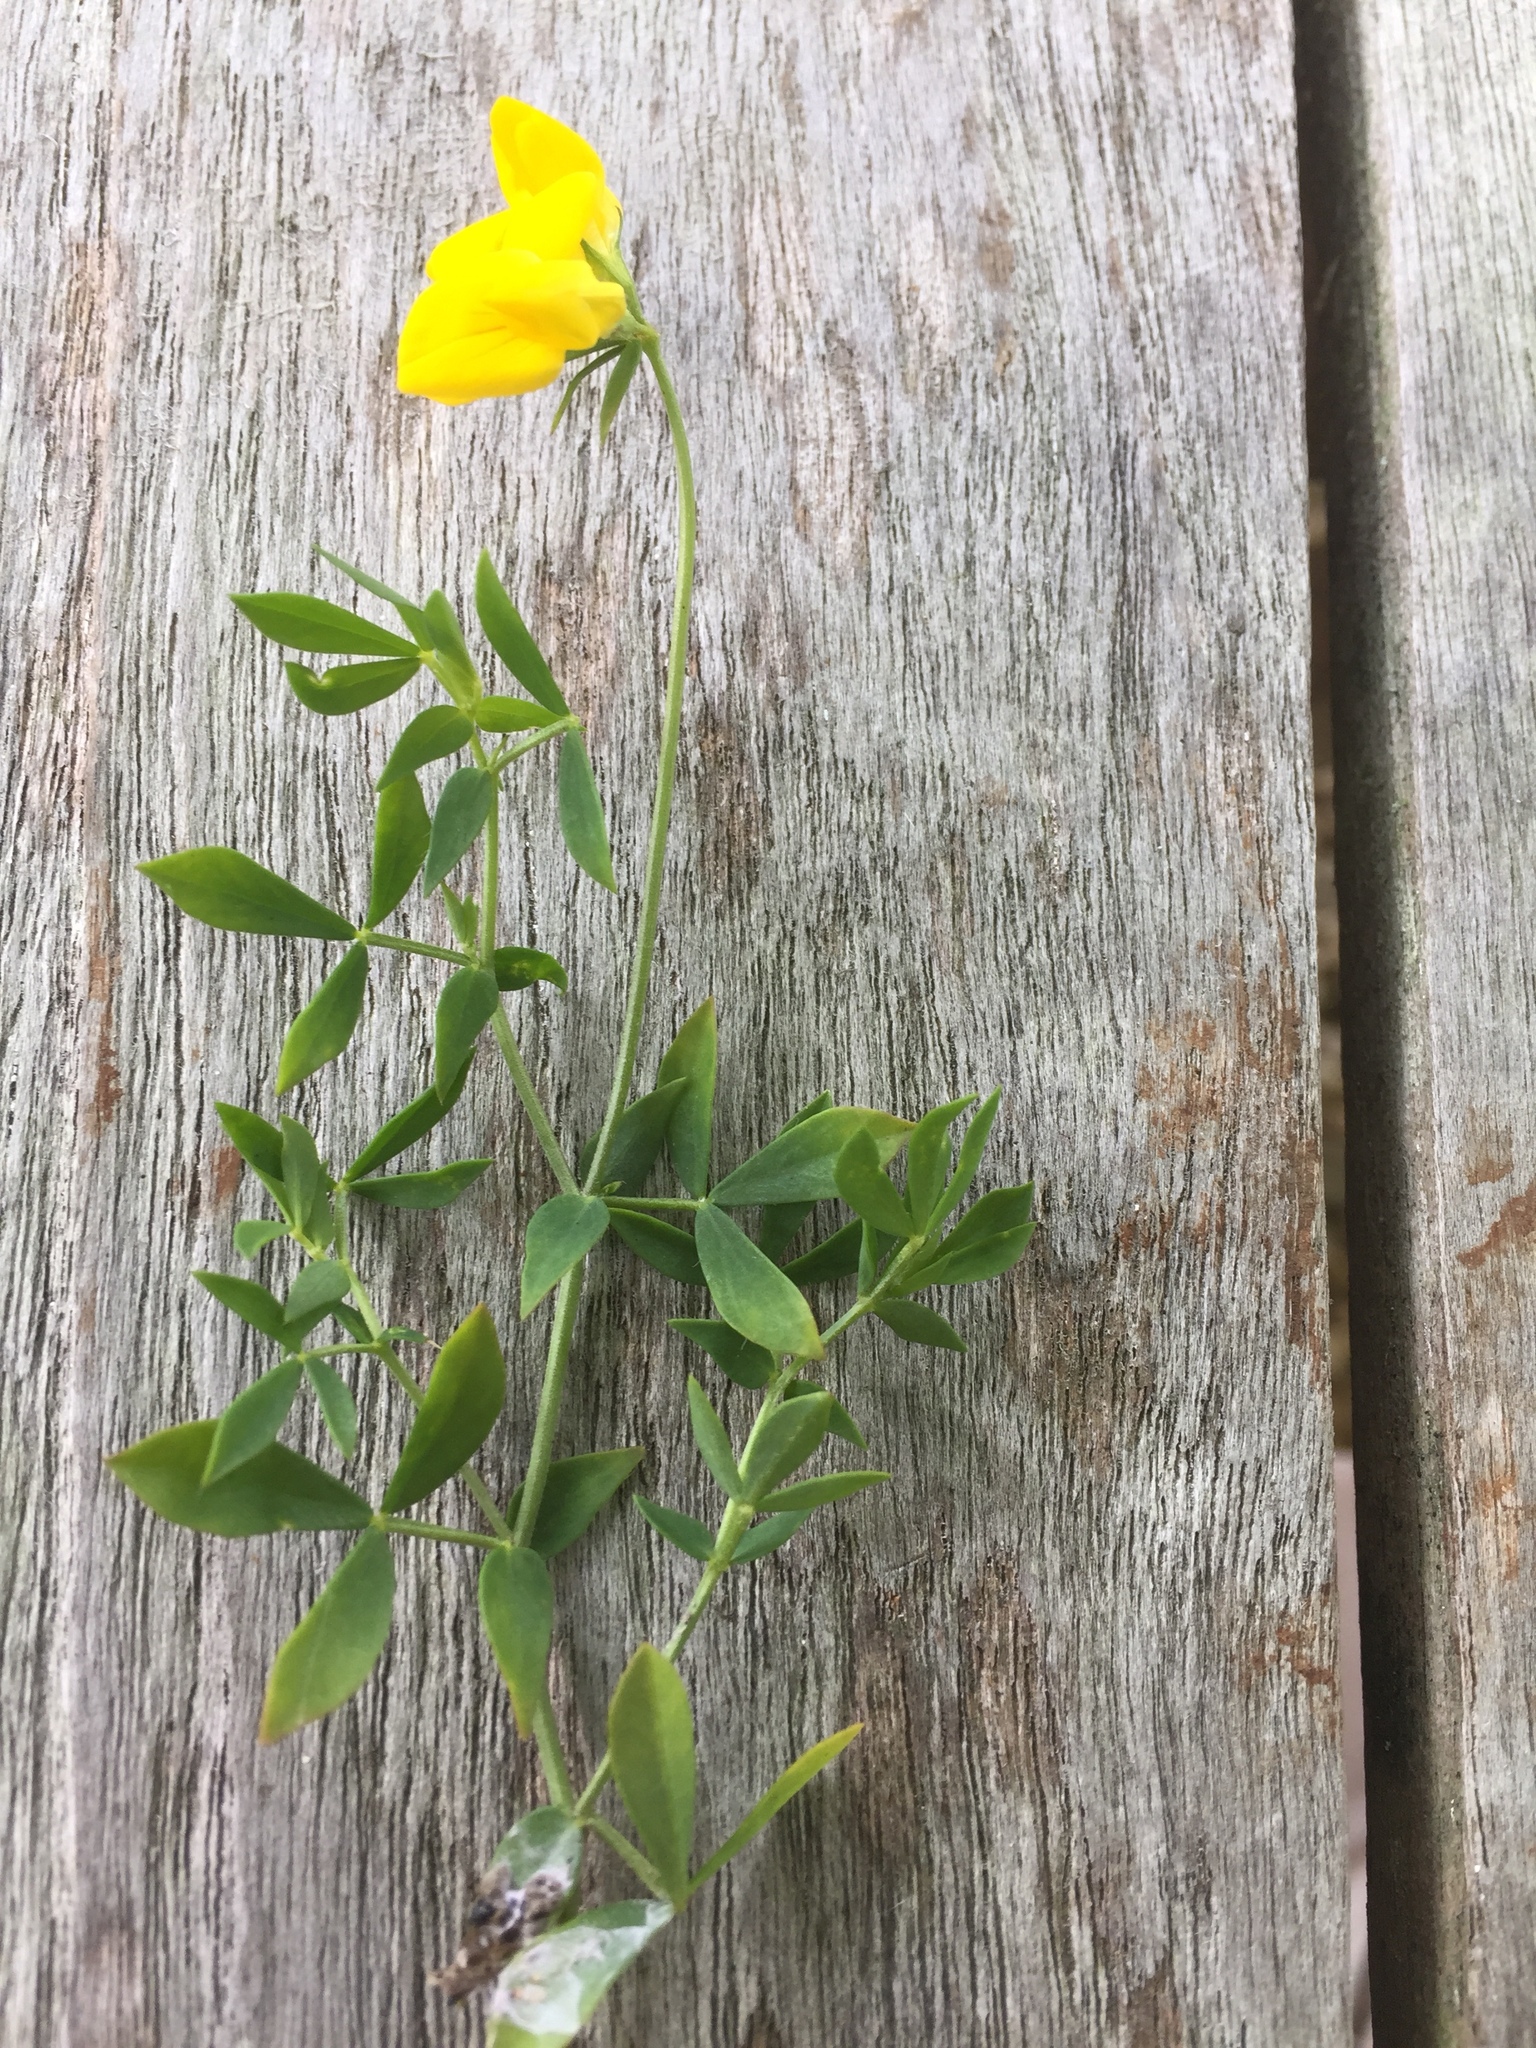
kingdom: Plantae
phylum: Tracheophyta
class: Magnoliopsida
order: Fabales
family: Fabaceae
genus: Medicago
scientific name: Medicago falcata
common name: Sickle medick
